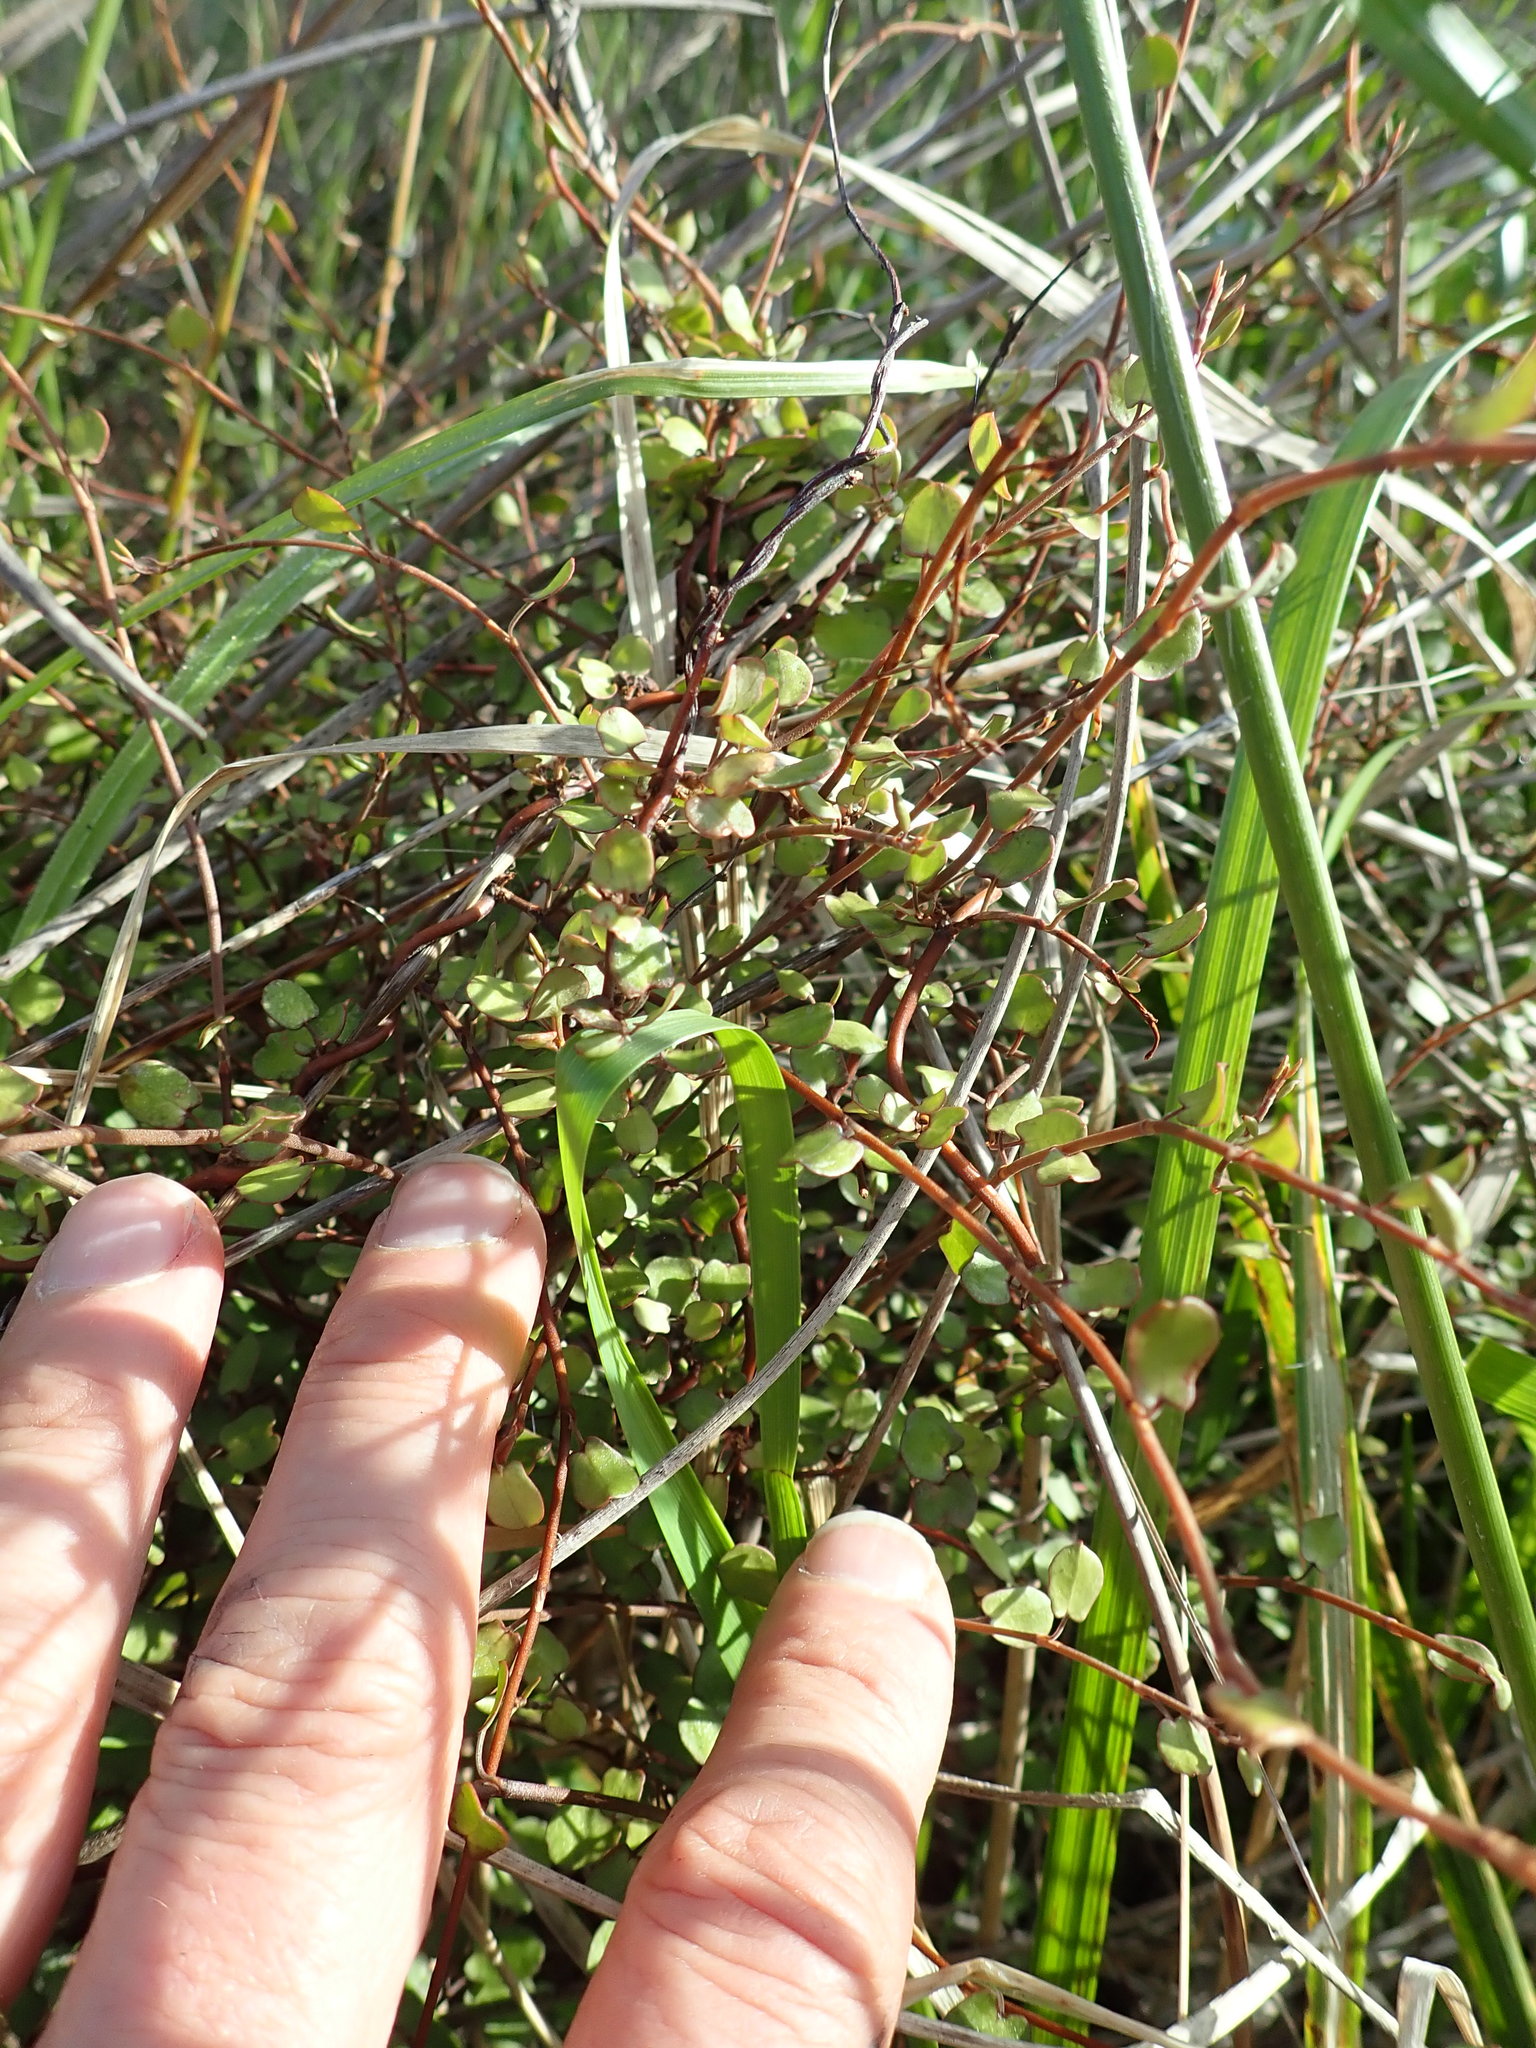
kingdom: Plantae
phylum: Tracheophyta
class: Magnoliopsida
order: Caryophyllales
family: Polygonaceae
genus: Muehlenbeckia
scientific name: Muehlenbeckia complexa
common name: Wireplant
